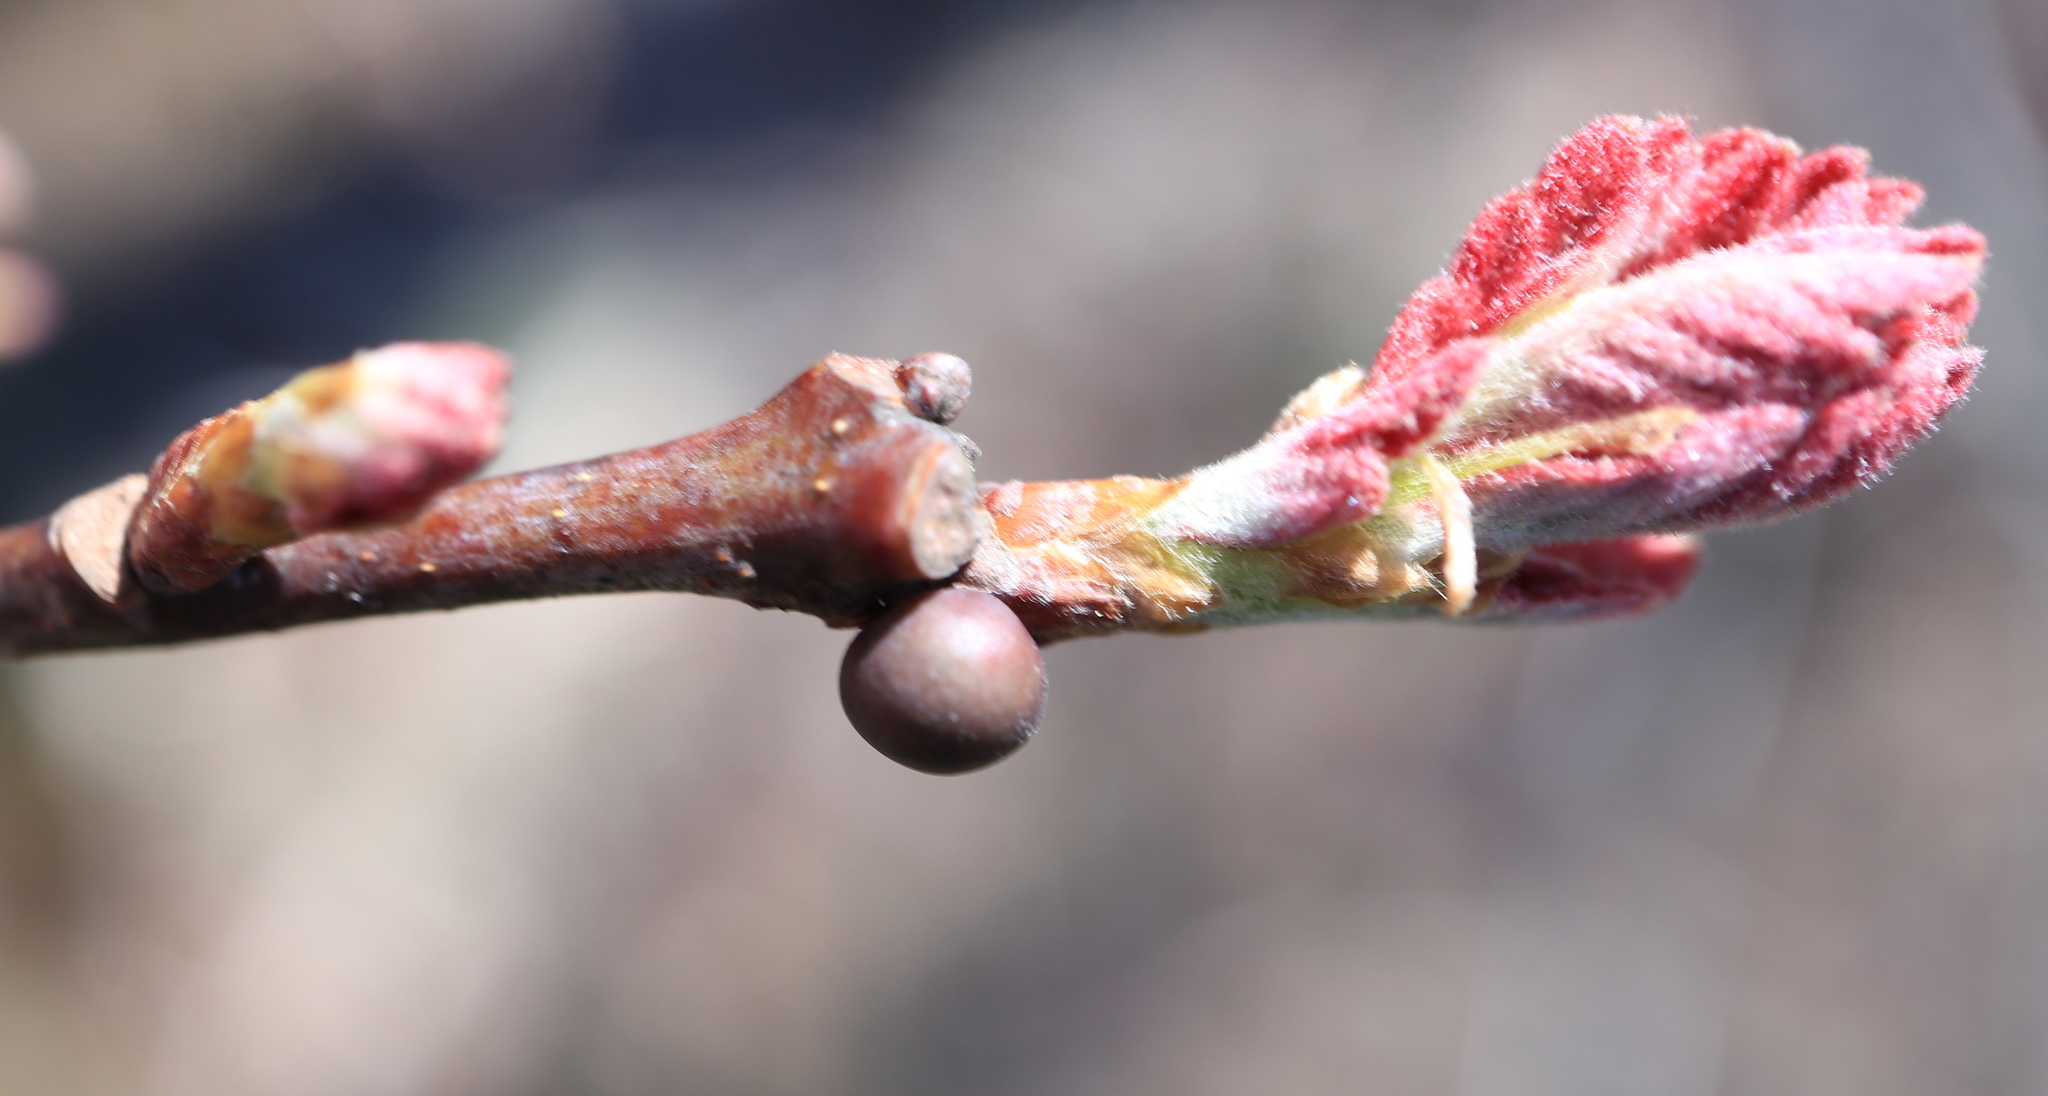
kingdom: Animalia
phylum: Arthropoda
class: Insecta
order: Hymenoptera
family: Cynipidae
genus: Neuroterus
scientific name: Neuroterus
